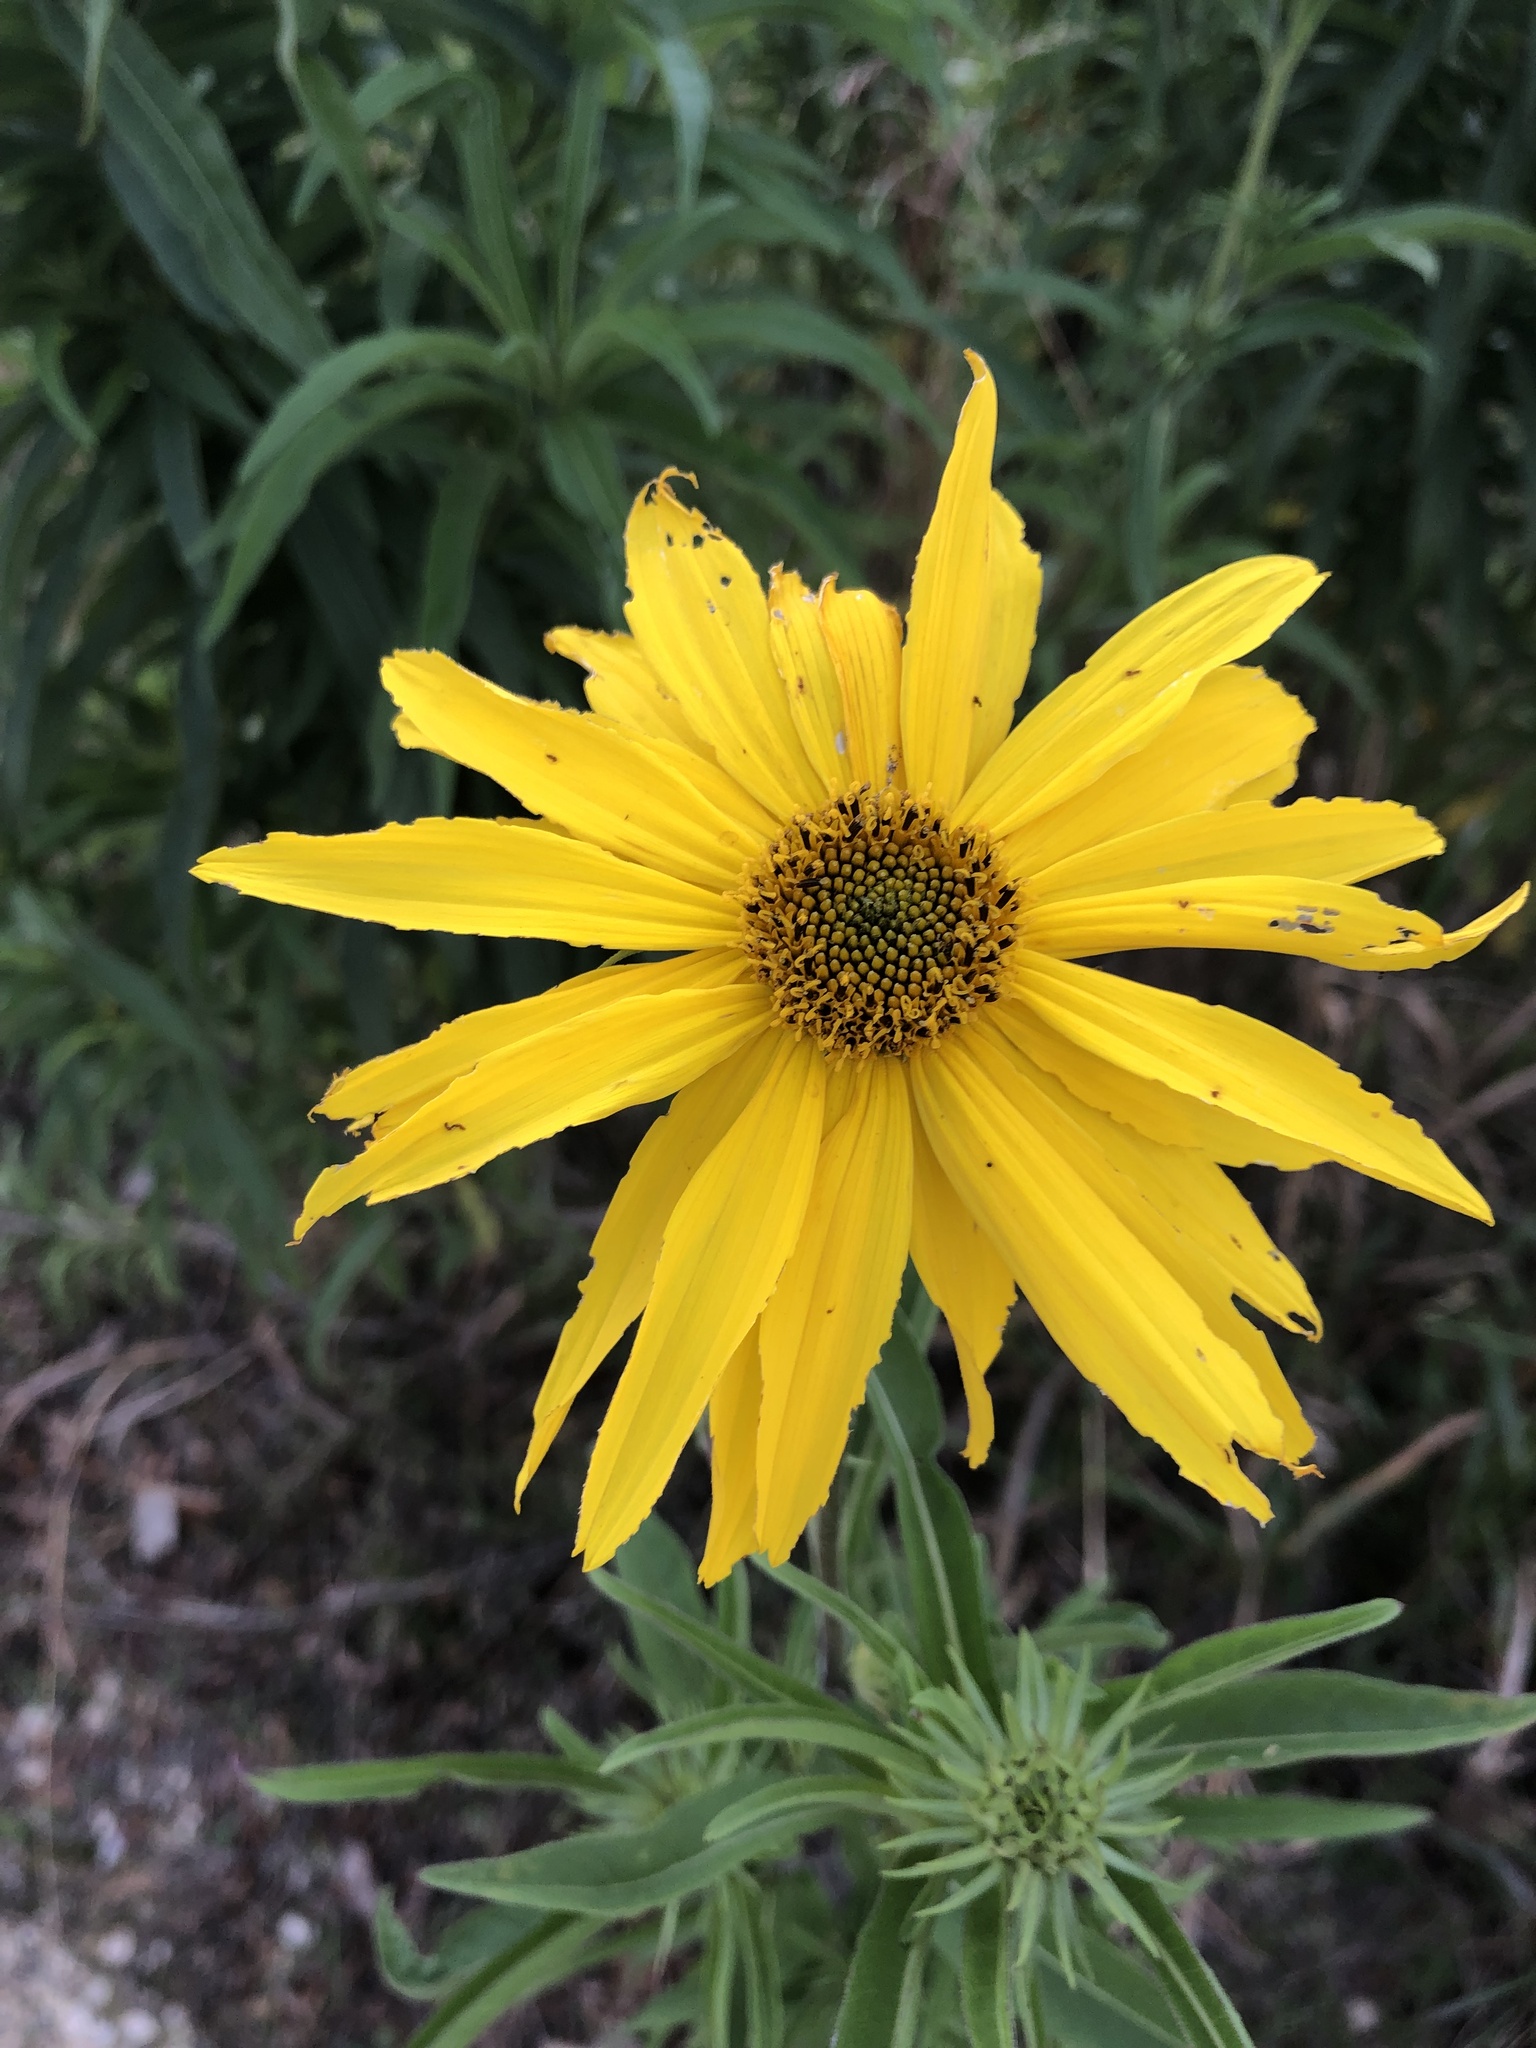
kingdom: Plantae
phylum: Tracheophyta
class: Magnoliopsida
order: Asterales
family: Asteraceae
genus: Helianthus
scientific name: Helianthus maximiliani
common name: Maximilian's sunflower
